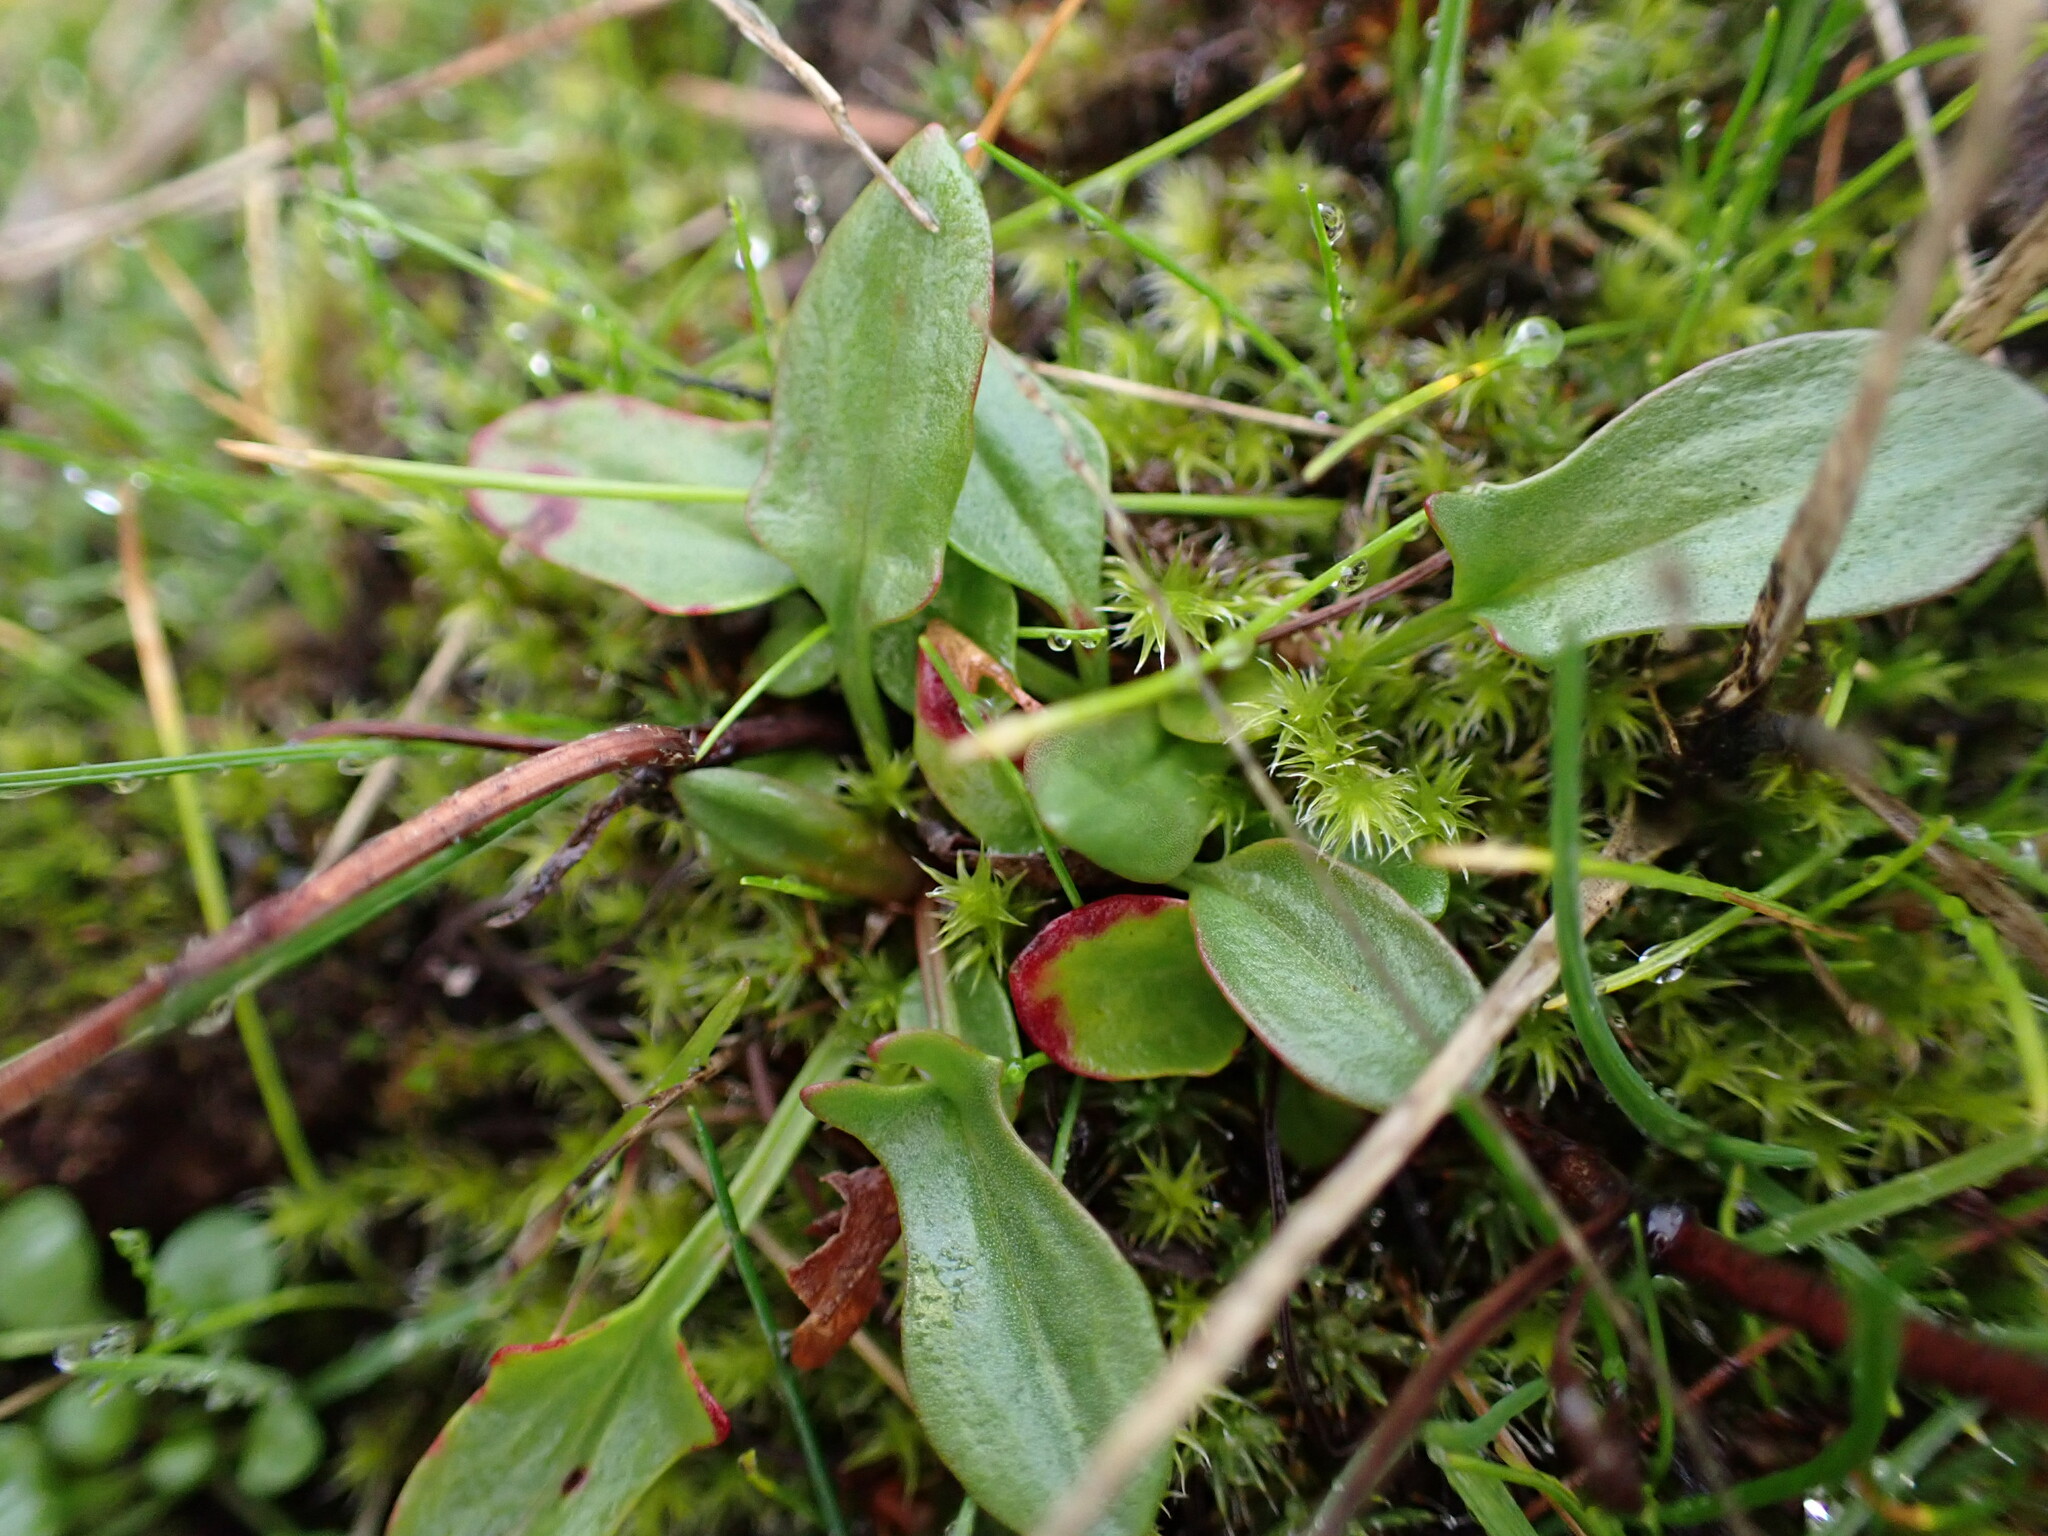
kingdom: Plantae
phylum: Tracheophyta
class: Magnoliopsida
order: Caryophyllales
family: Polygonaceae
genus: Rumex
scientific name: Rumex acetosella
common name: Common sheep sorrel
